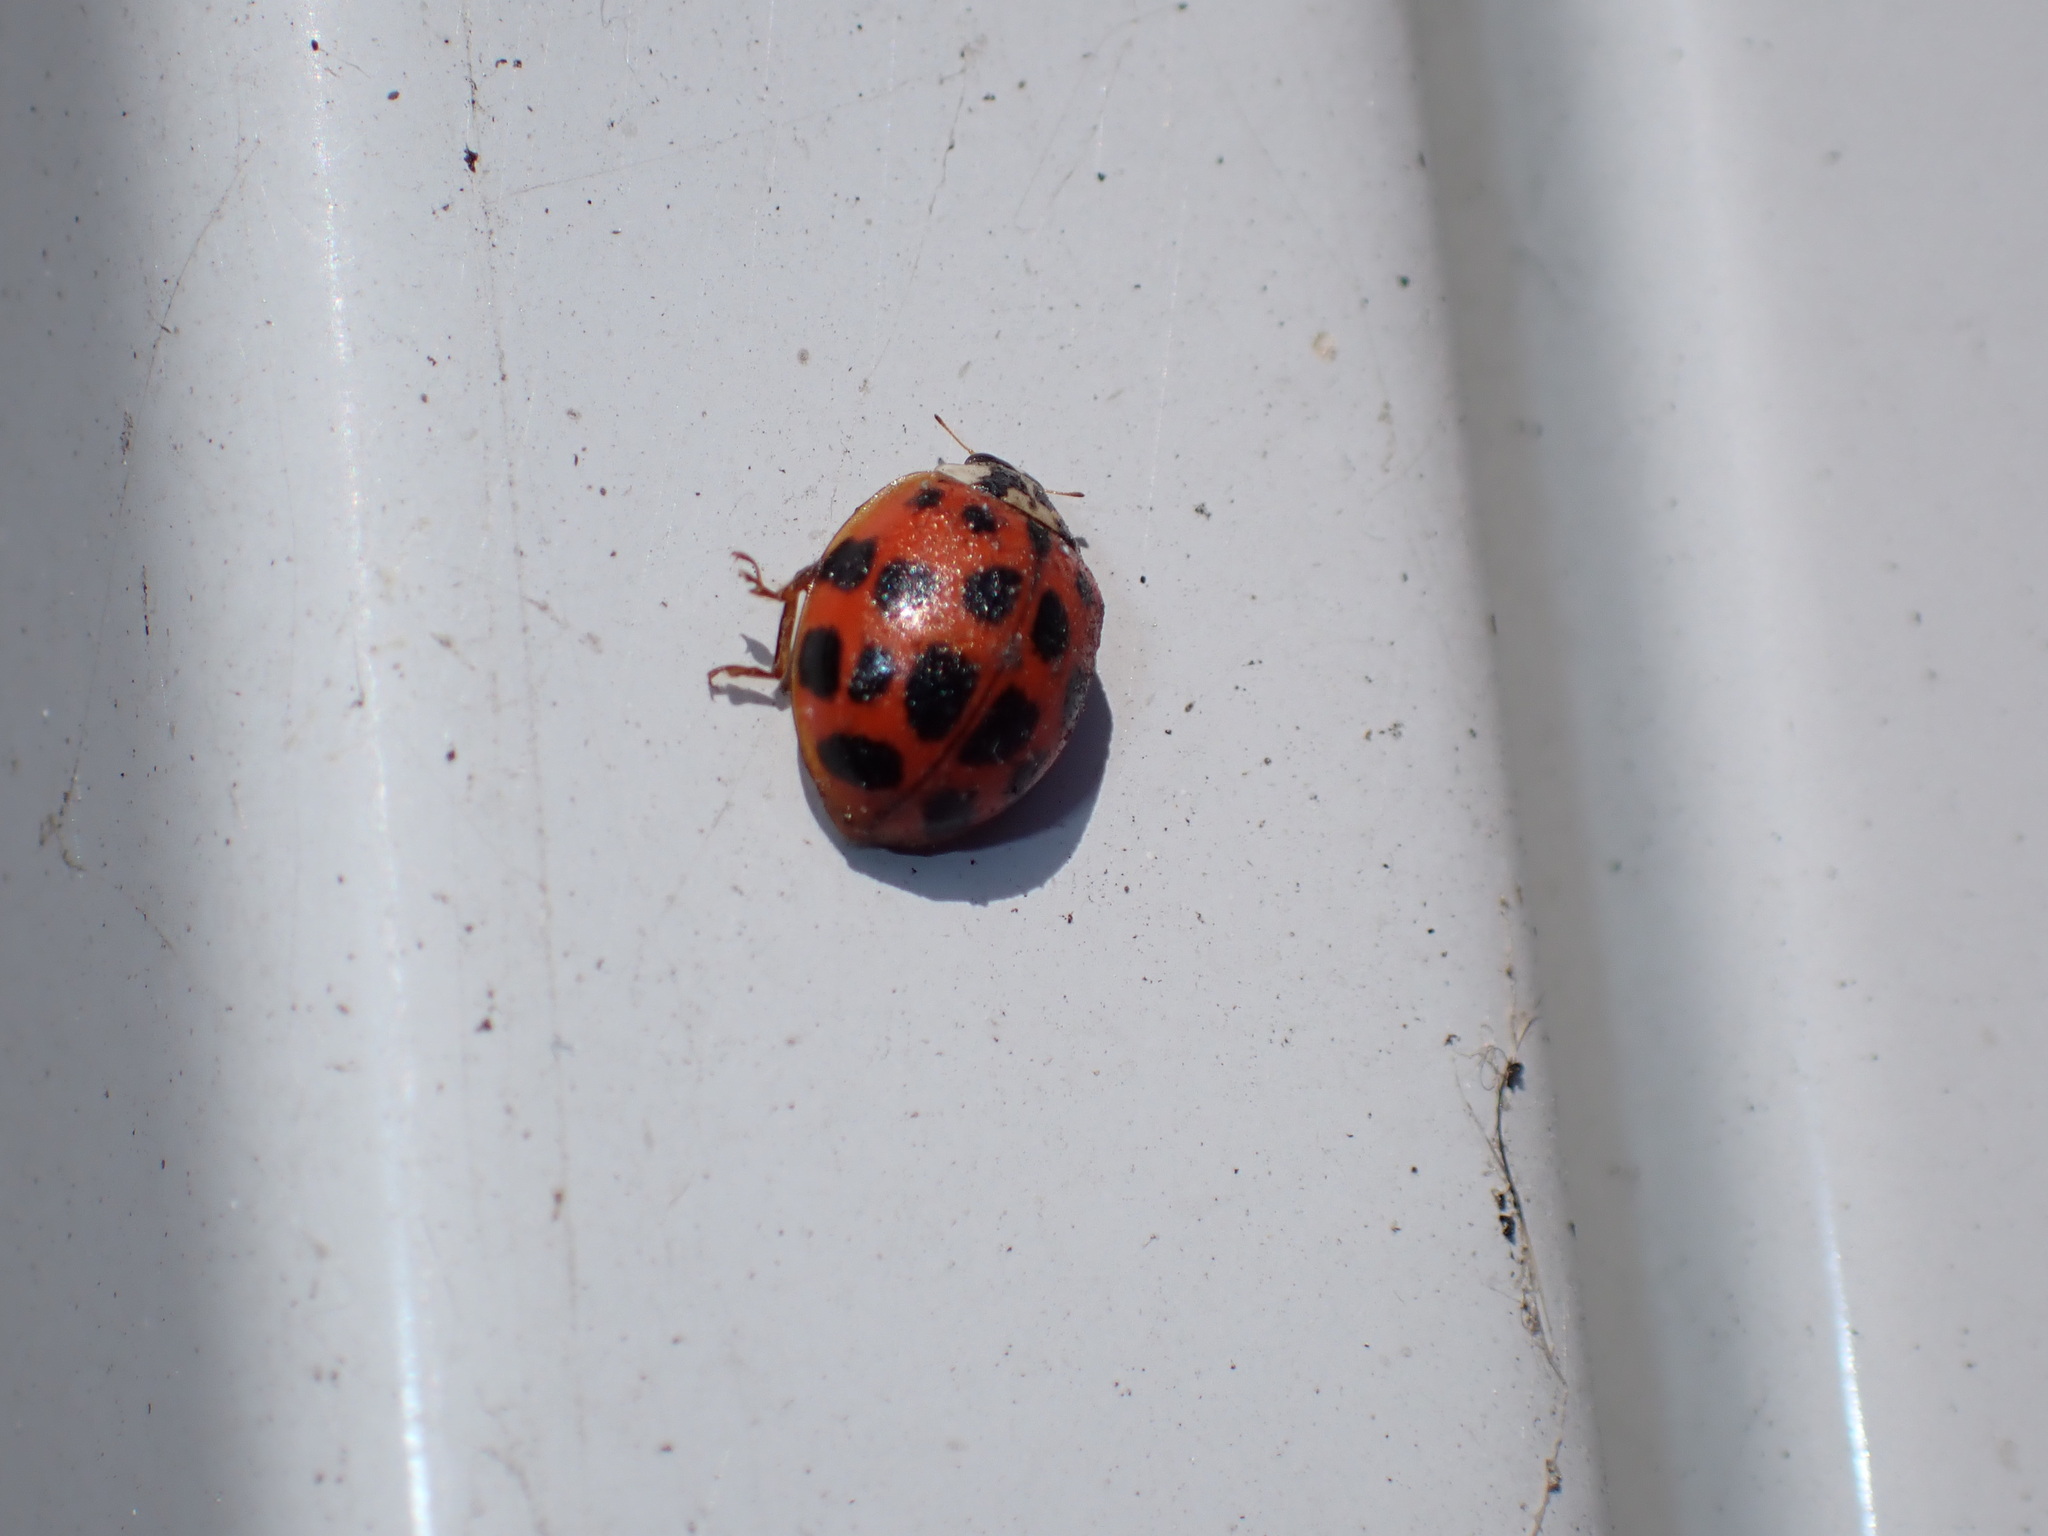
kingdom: Animalia
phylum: Arthropoda
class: Insecta
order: Coleoptera
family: Coccinellidae
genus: Harmonia
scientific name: Harmonia axyridis
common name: Harlequin ladybird
